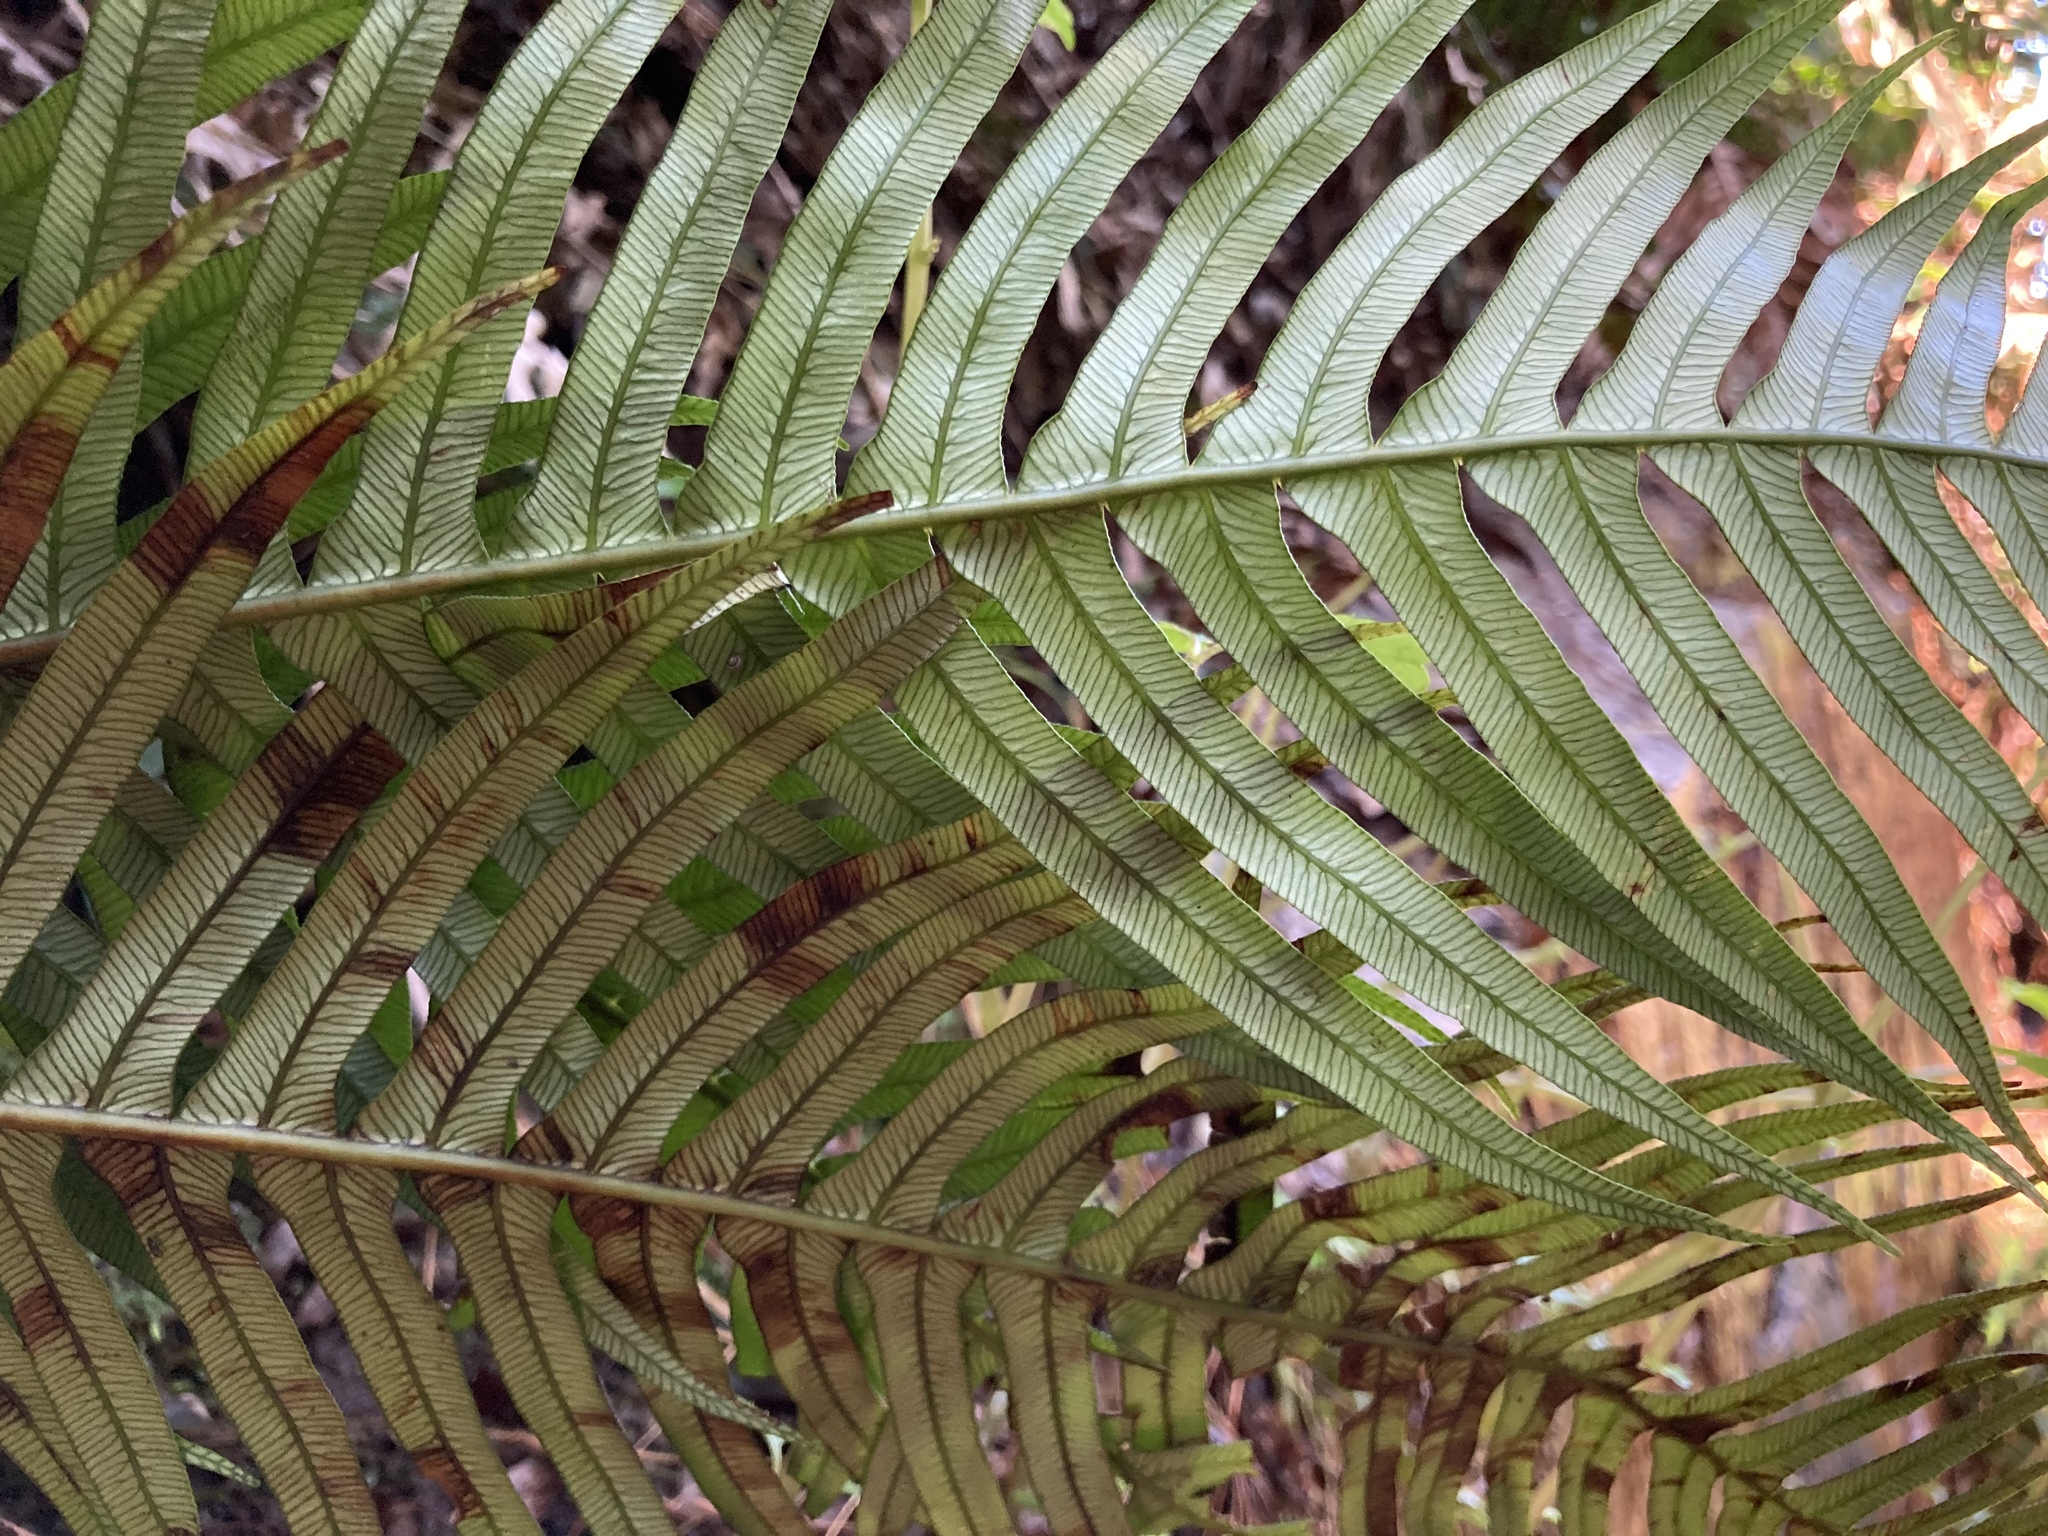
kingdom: Plantae
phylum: Tracheophyta
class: Polypodiopsida
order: Polypodiales
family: Blechnaceae
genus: Lomaridium
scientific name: Lomaridium attenuatum
